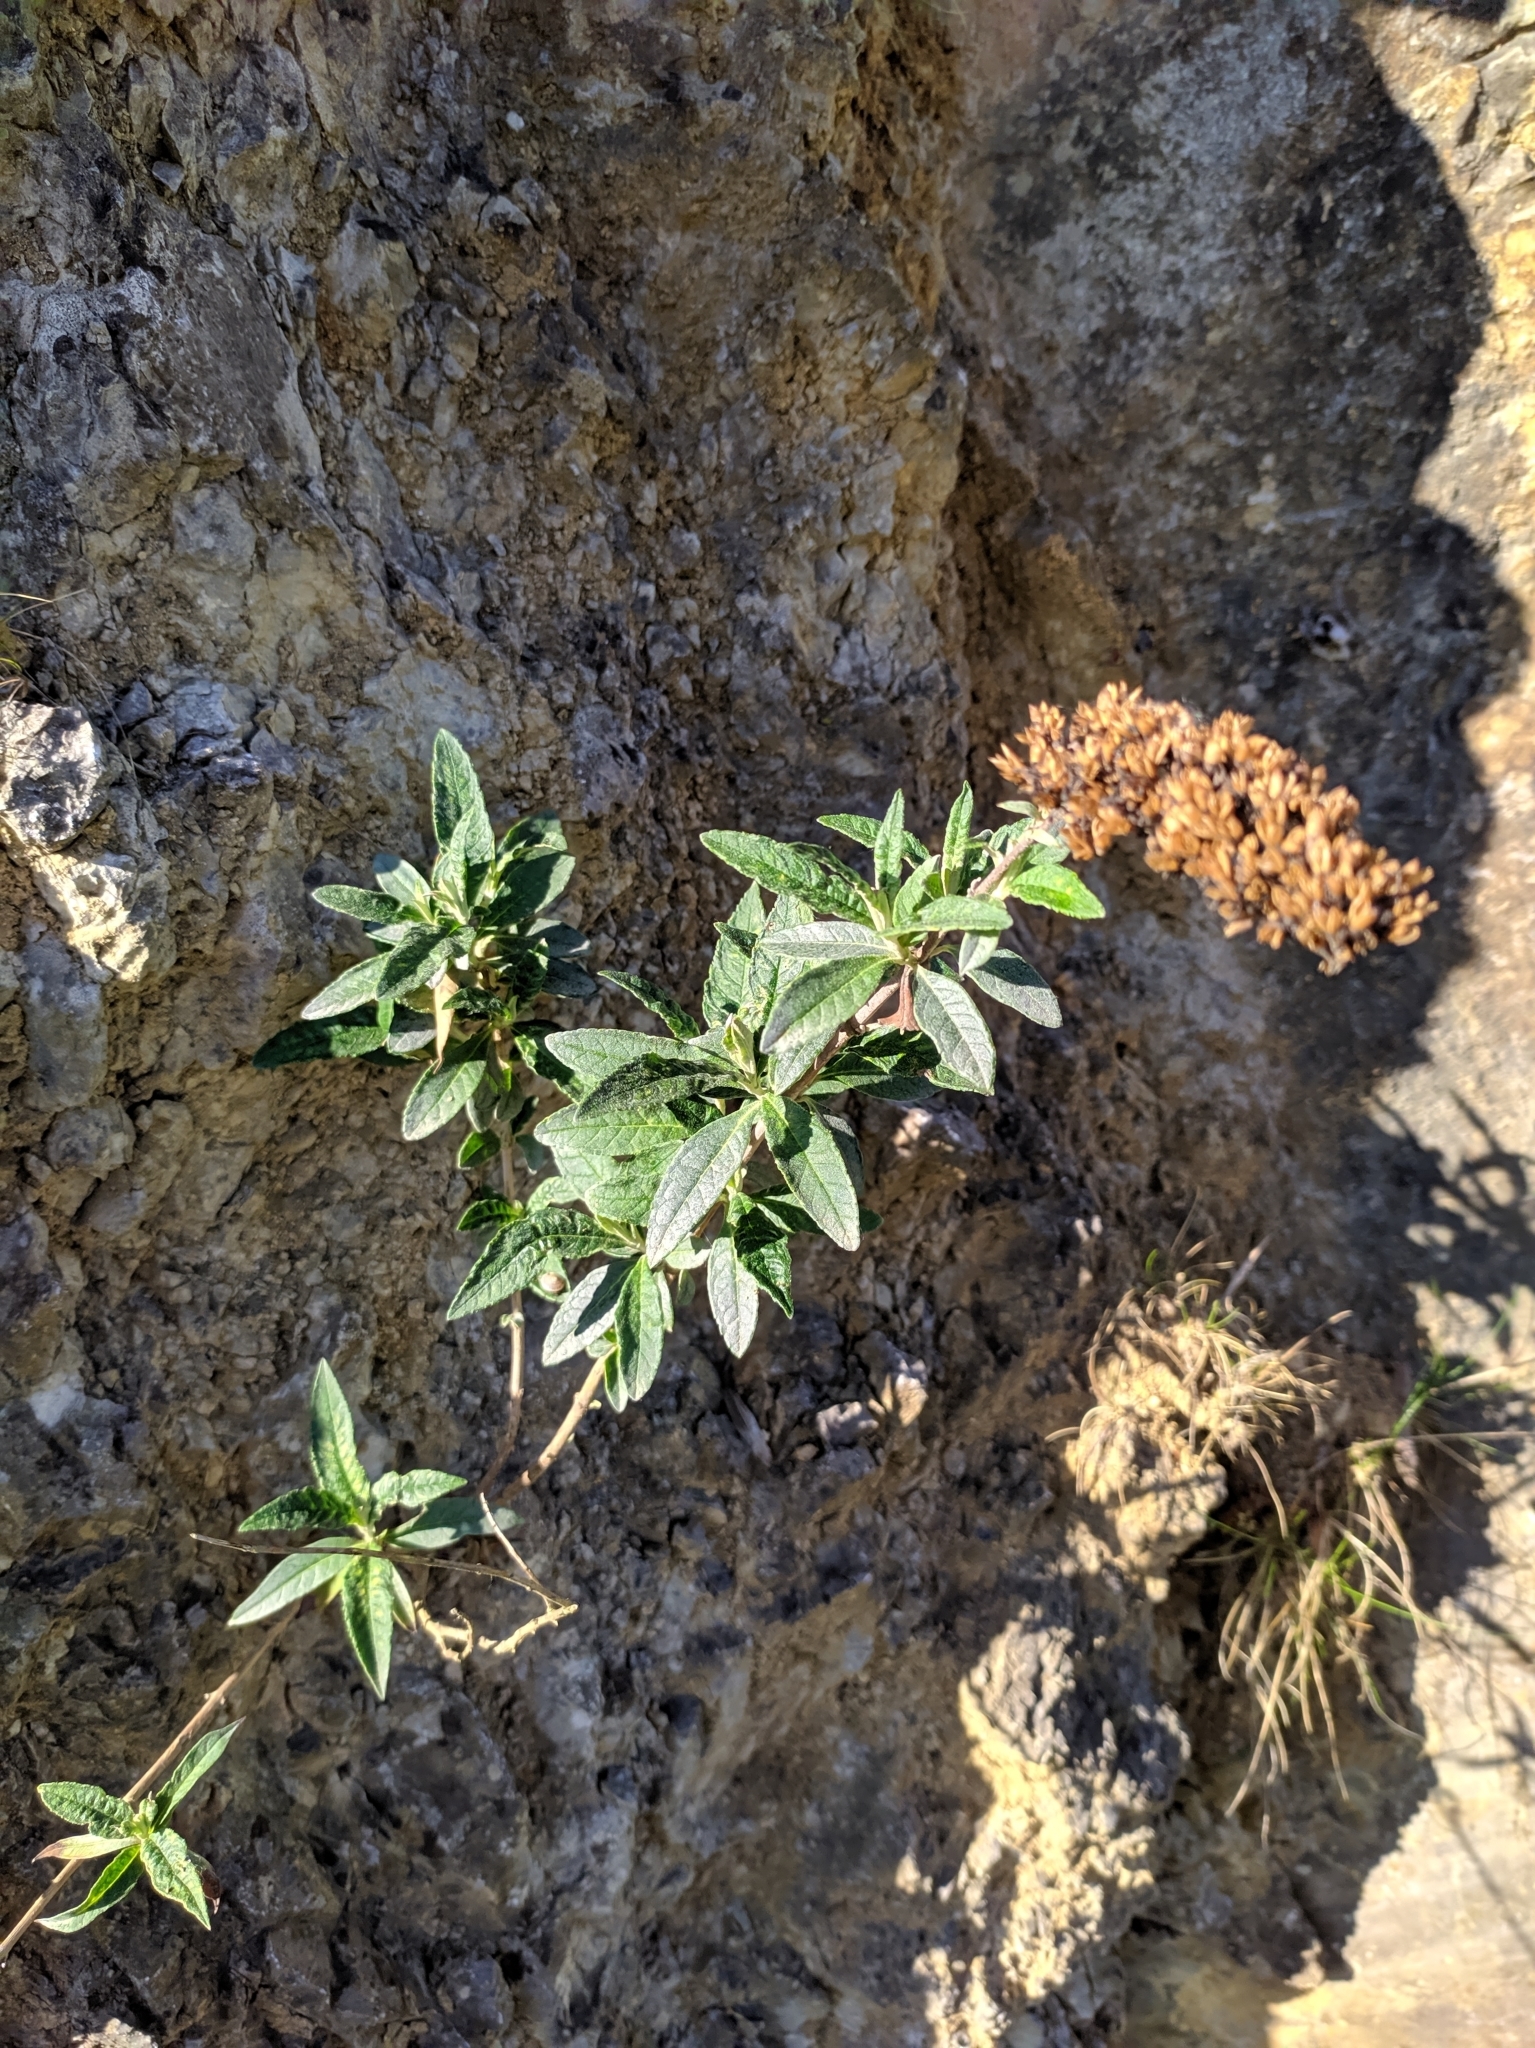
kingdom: Plantae
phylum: Tracheophyta
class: Magnoliopsida
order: Lamiales
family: Scrophulariaceae
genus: Buddleja
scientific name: Buddleja davidii
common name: Butterfly-bush
